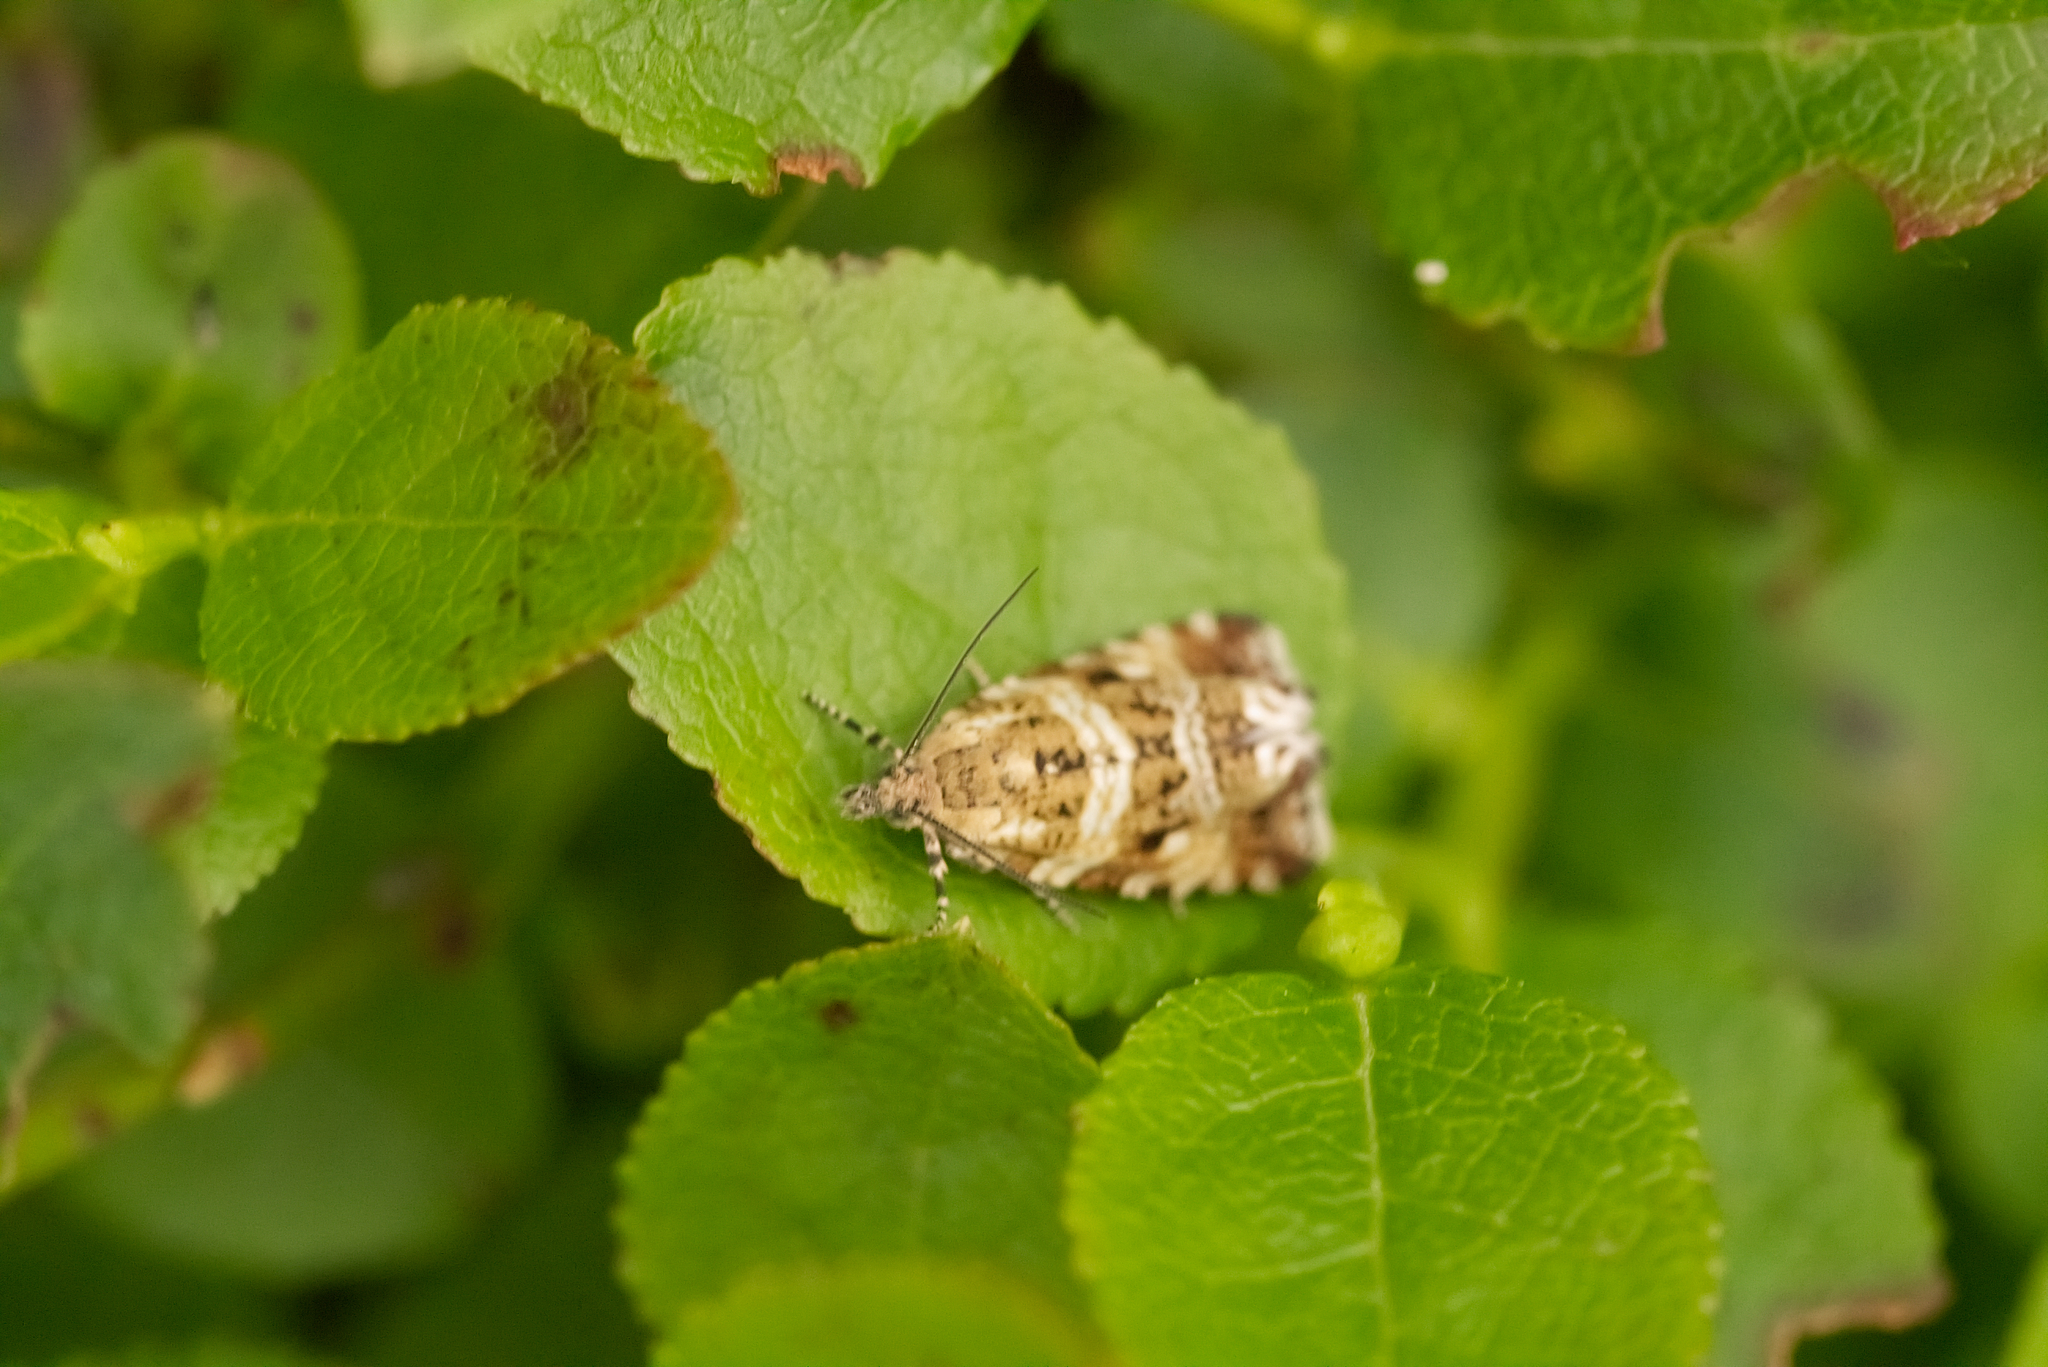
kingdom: Animalia
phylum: Arthropoda
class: Insecta
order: Lepidoptera
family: Tortricidae
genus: Syricoris
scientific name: Syricoris rivulana
